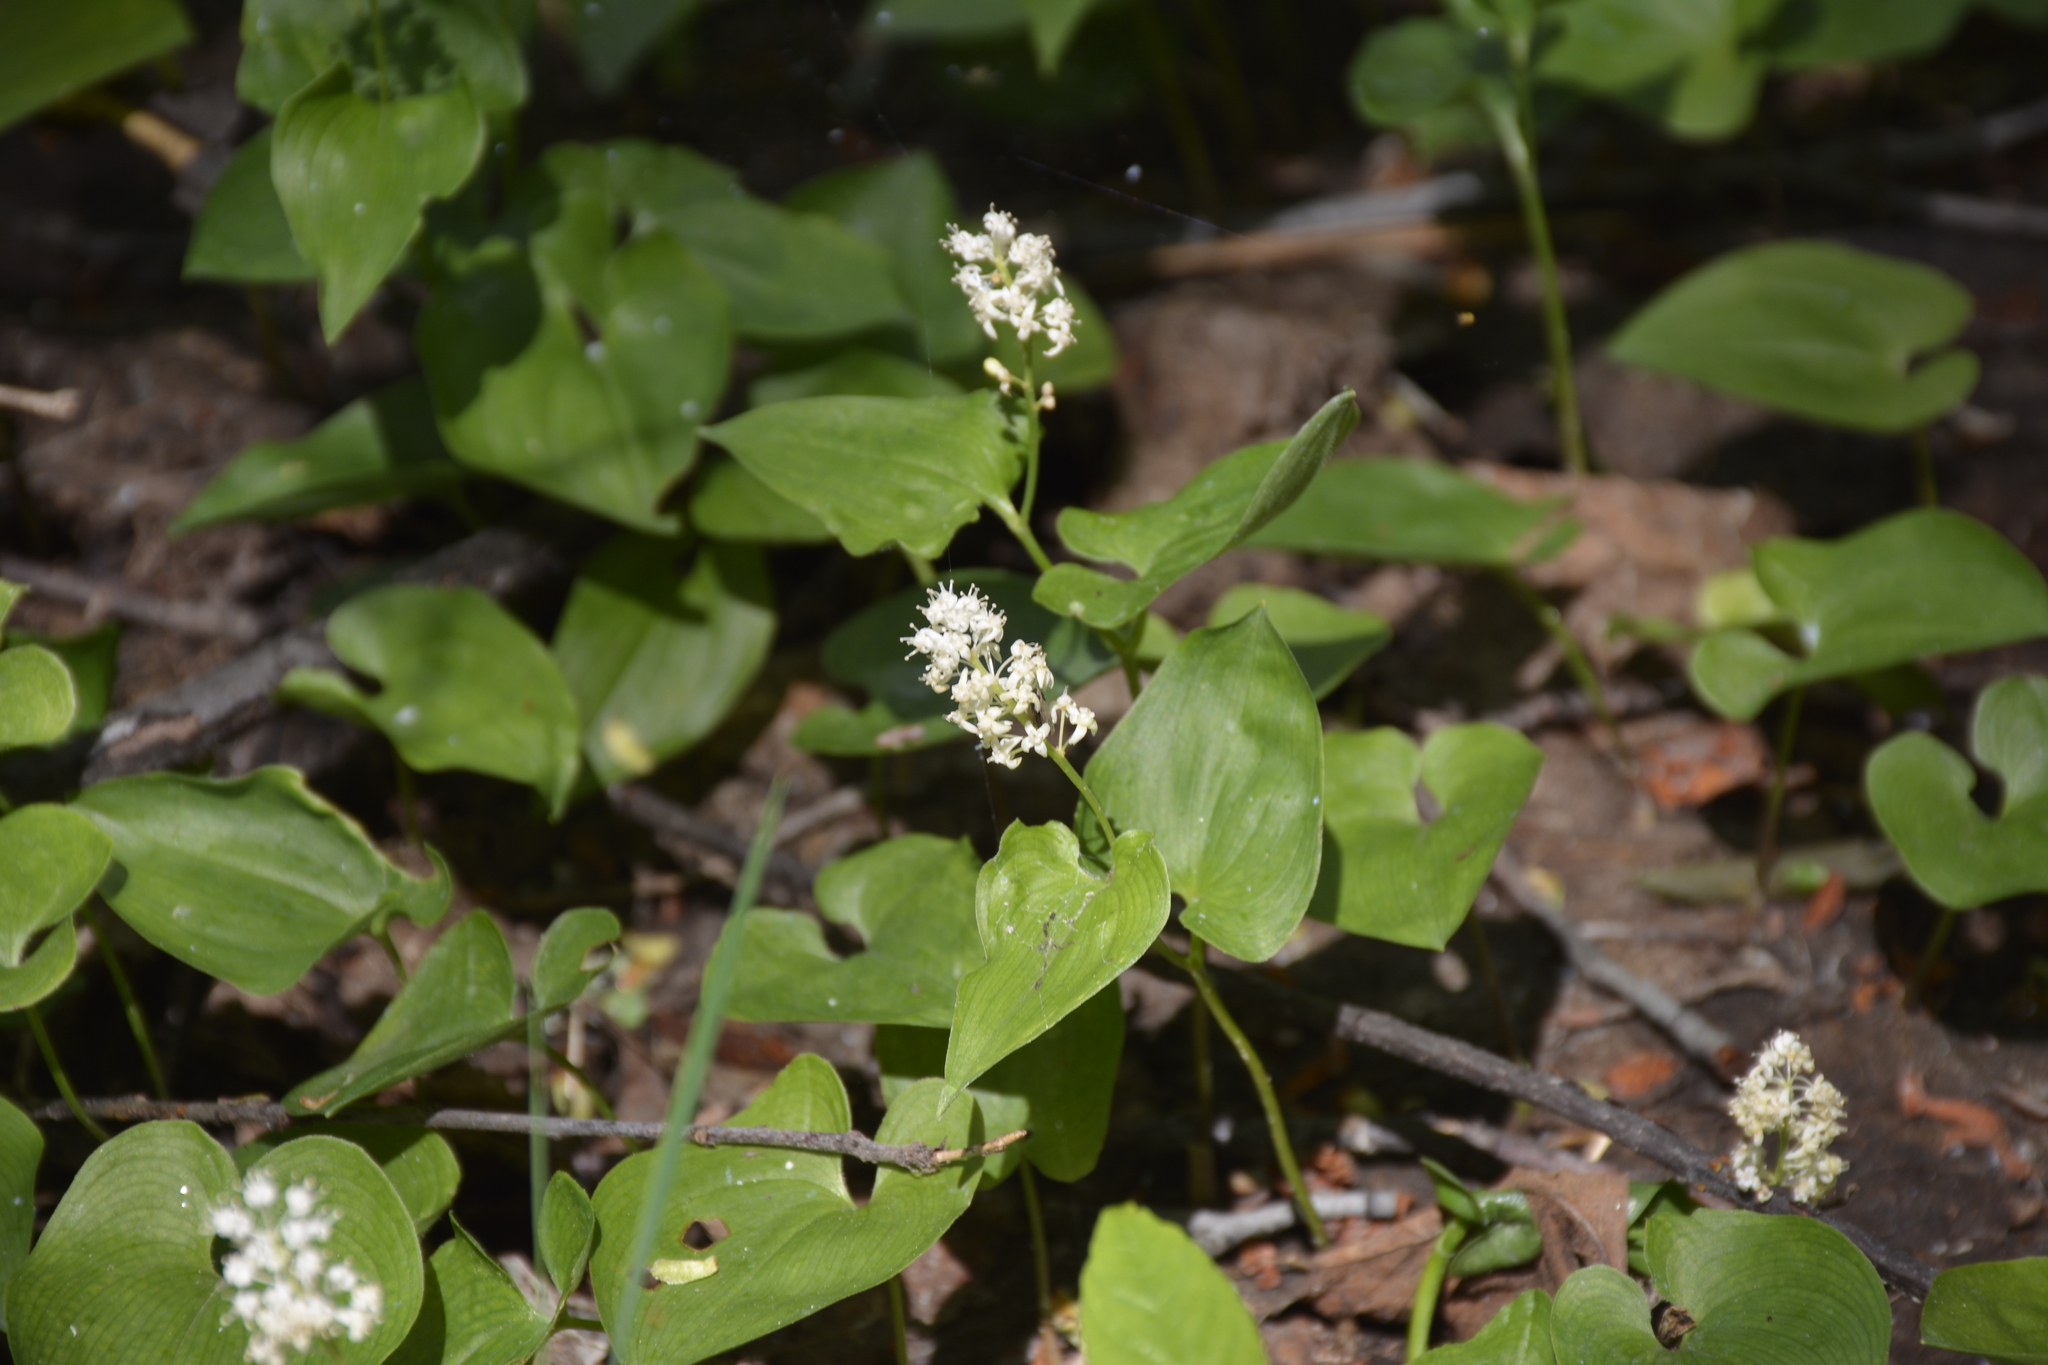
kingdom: Plantae
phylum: Tracheophyta
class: Liliopsida
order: Asparagales
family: Asparagaceae
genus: Maianthemum
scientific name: Maianthemum bifolium
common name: May lily
